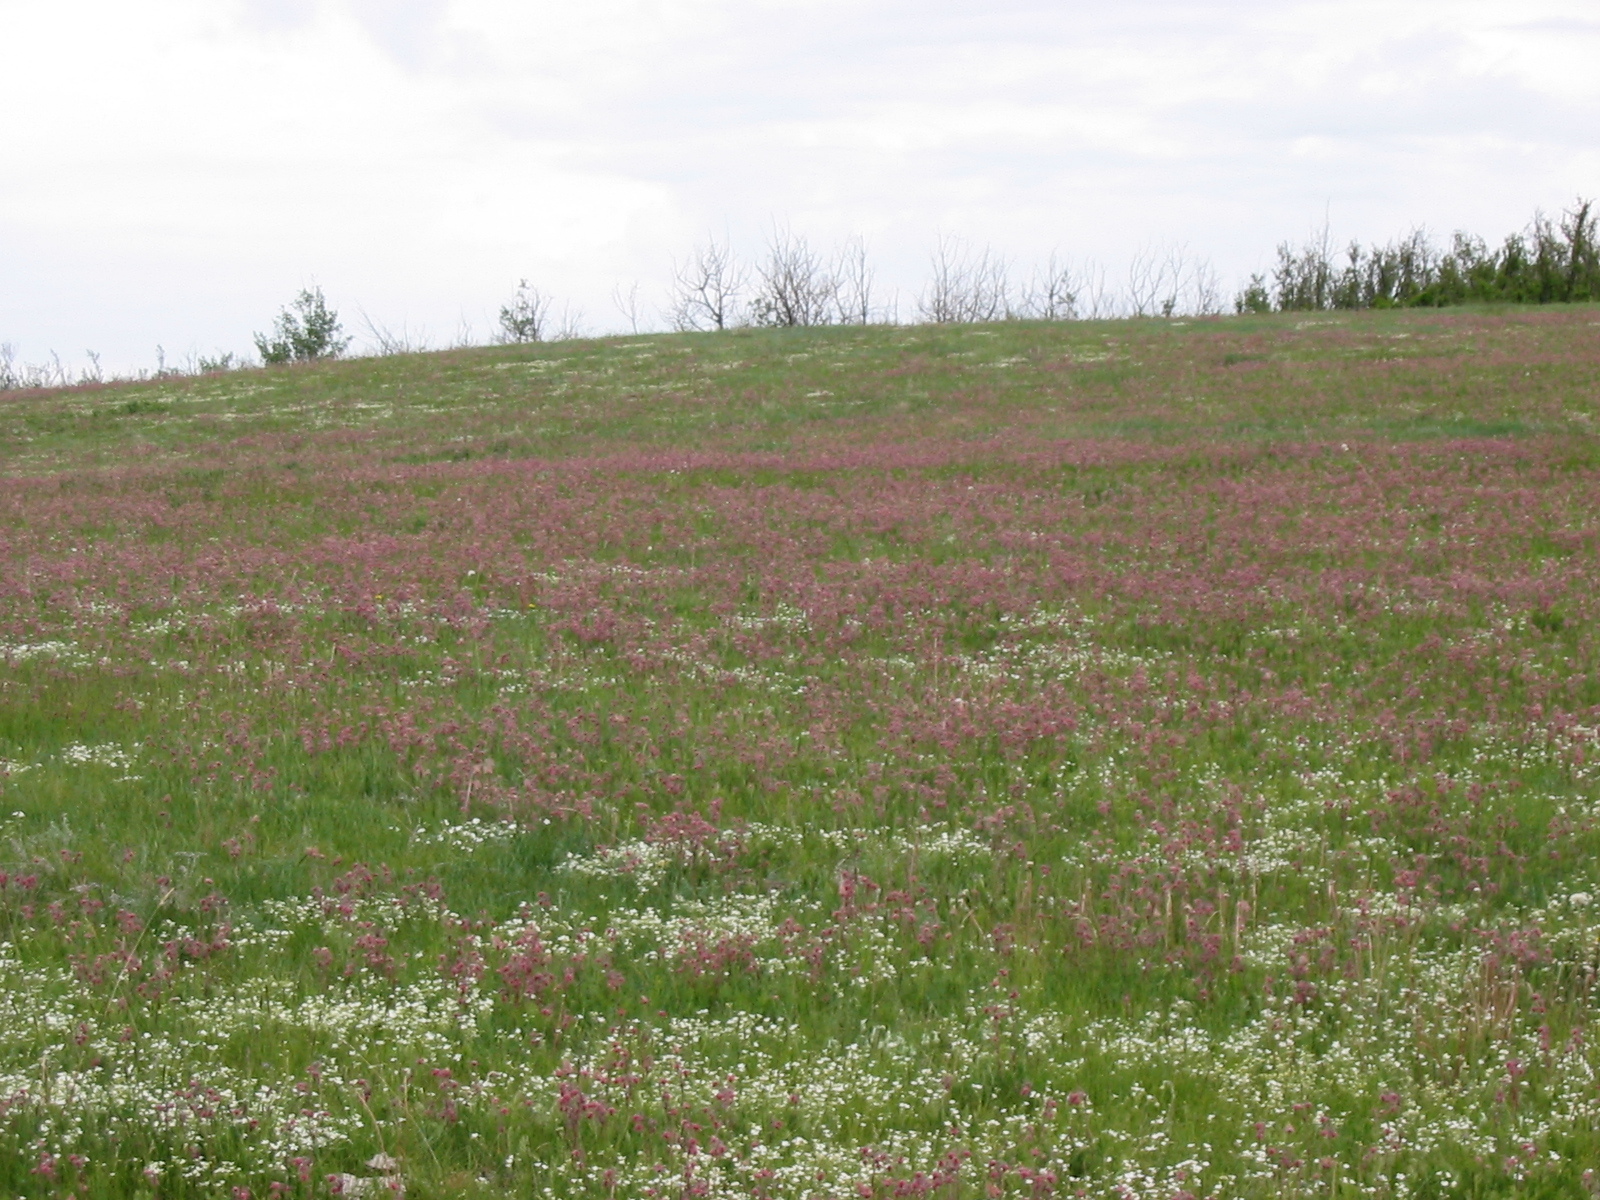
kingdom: Plantae
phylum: Tracheophyta
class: Magnoliopsida
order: Rosales
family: Rosaceae
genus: Geum
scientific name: Geum triflorum
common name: Old man's whiskers
